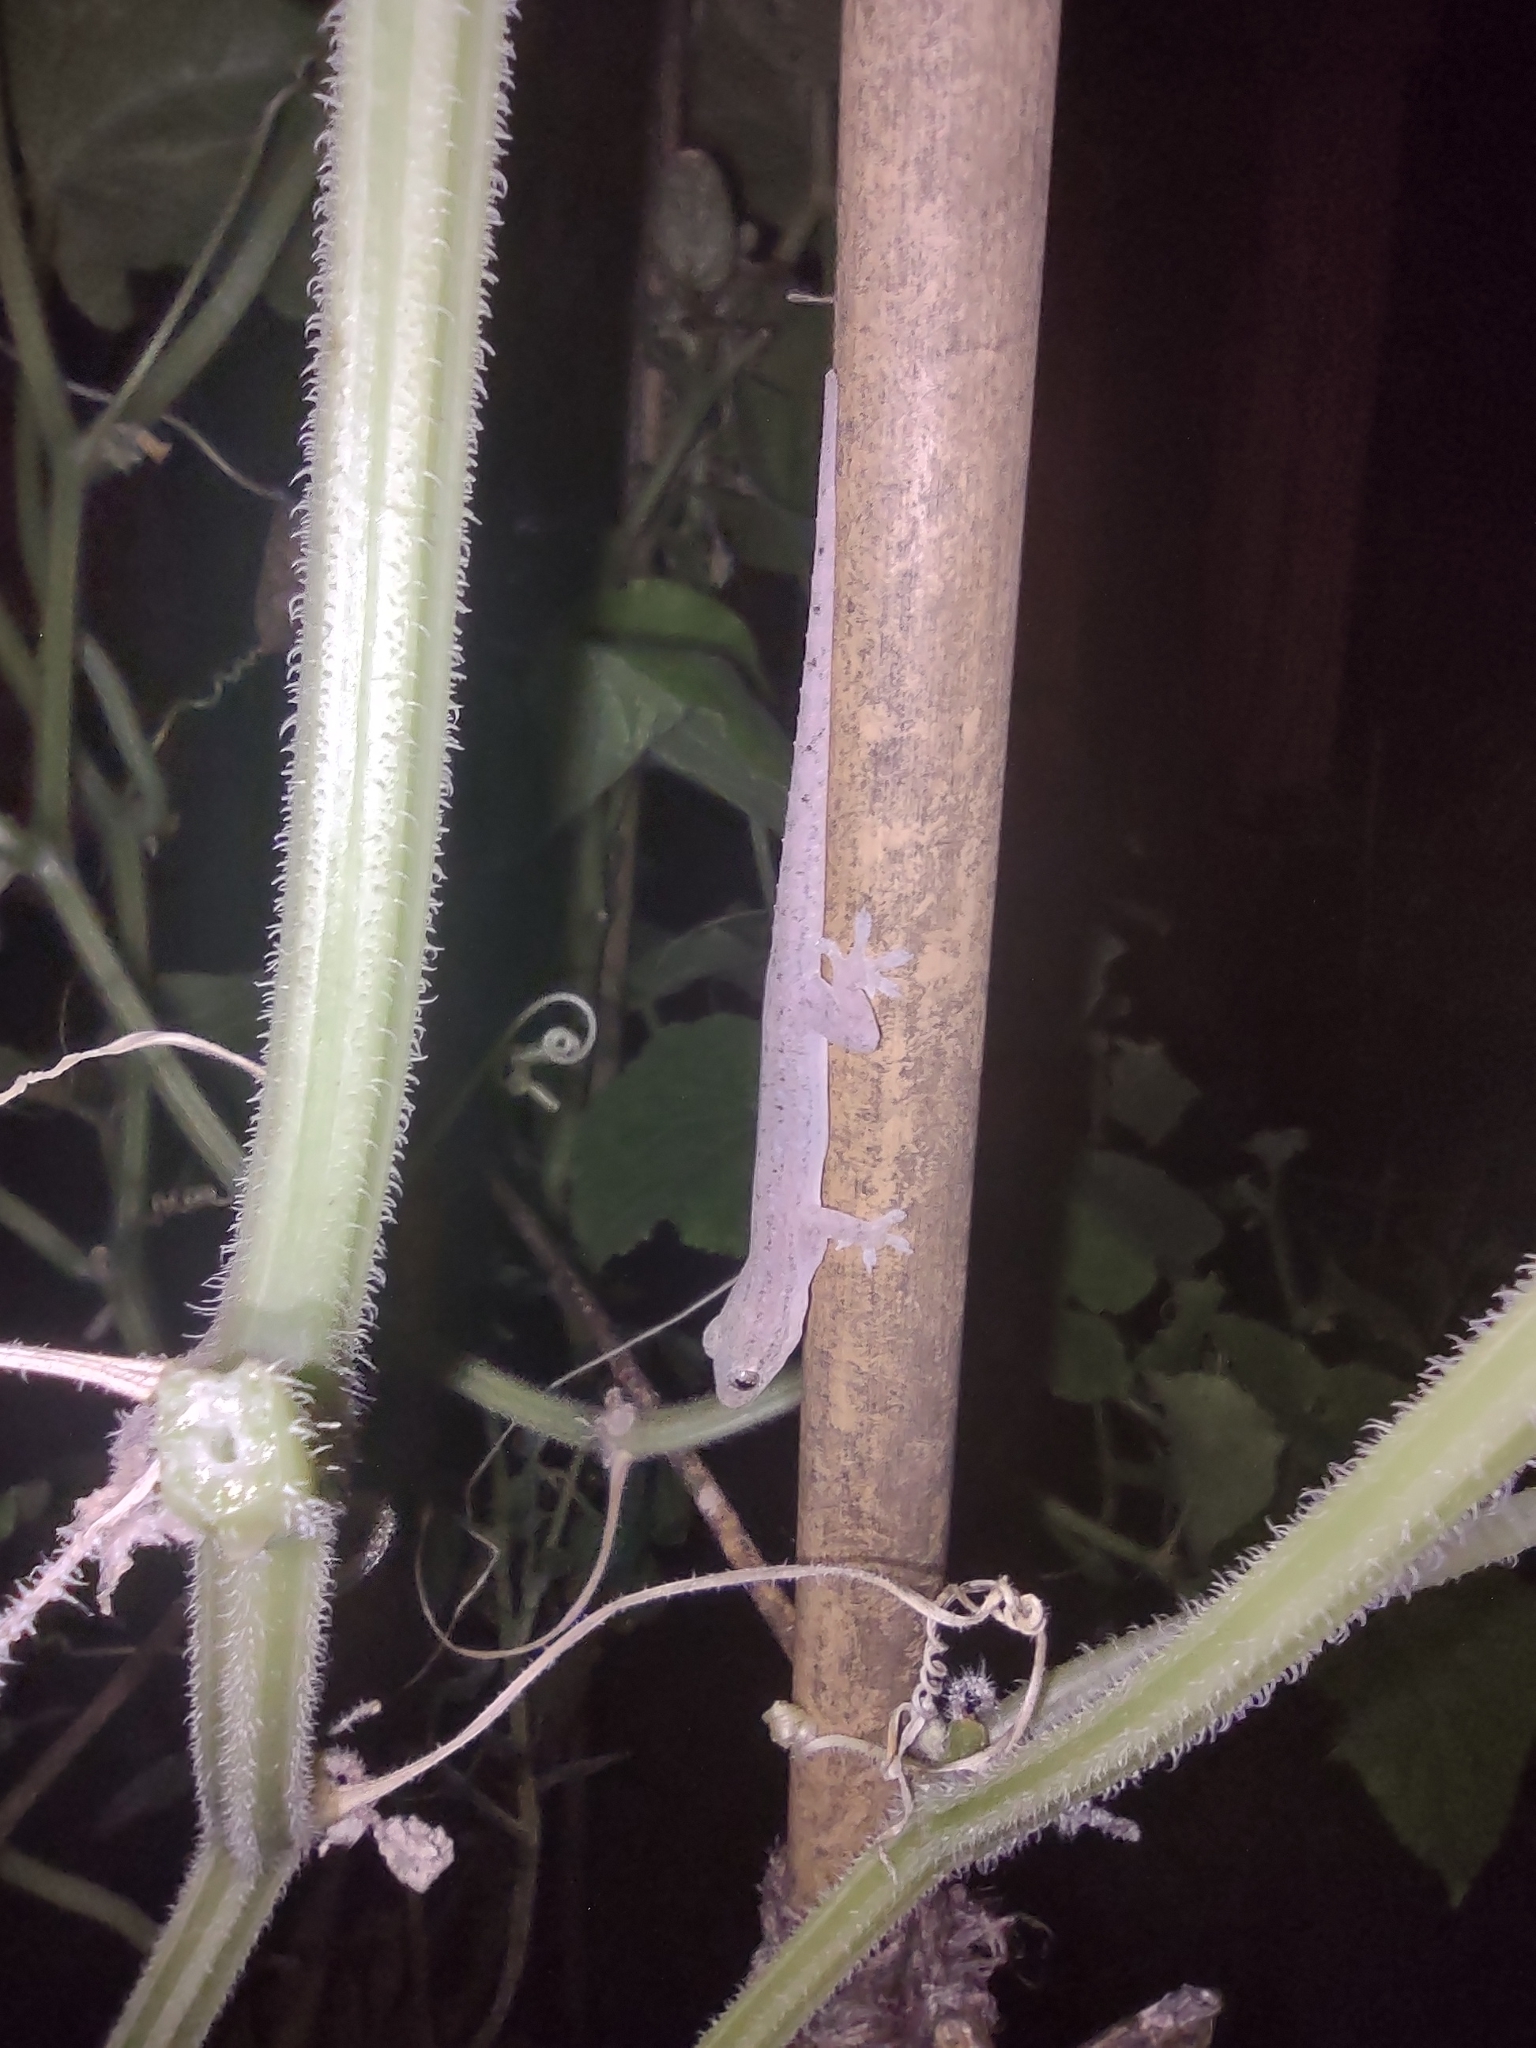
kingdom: Animalia
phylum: Chordata
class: Squamata
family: Gekkonidae
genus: Hemidactylus
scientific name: Hemidactylus frenatus
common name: Common house gecko
